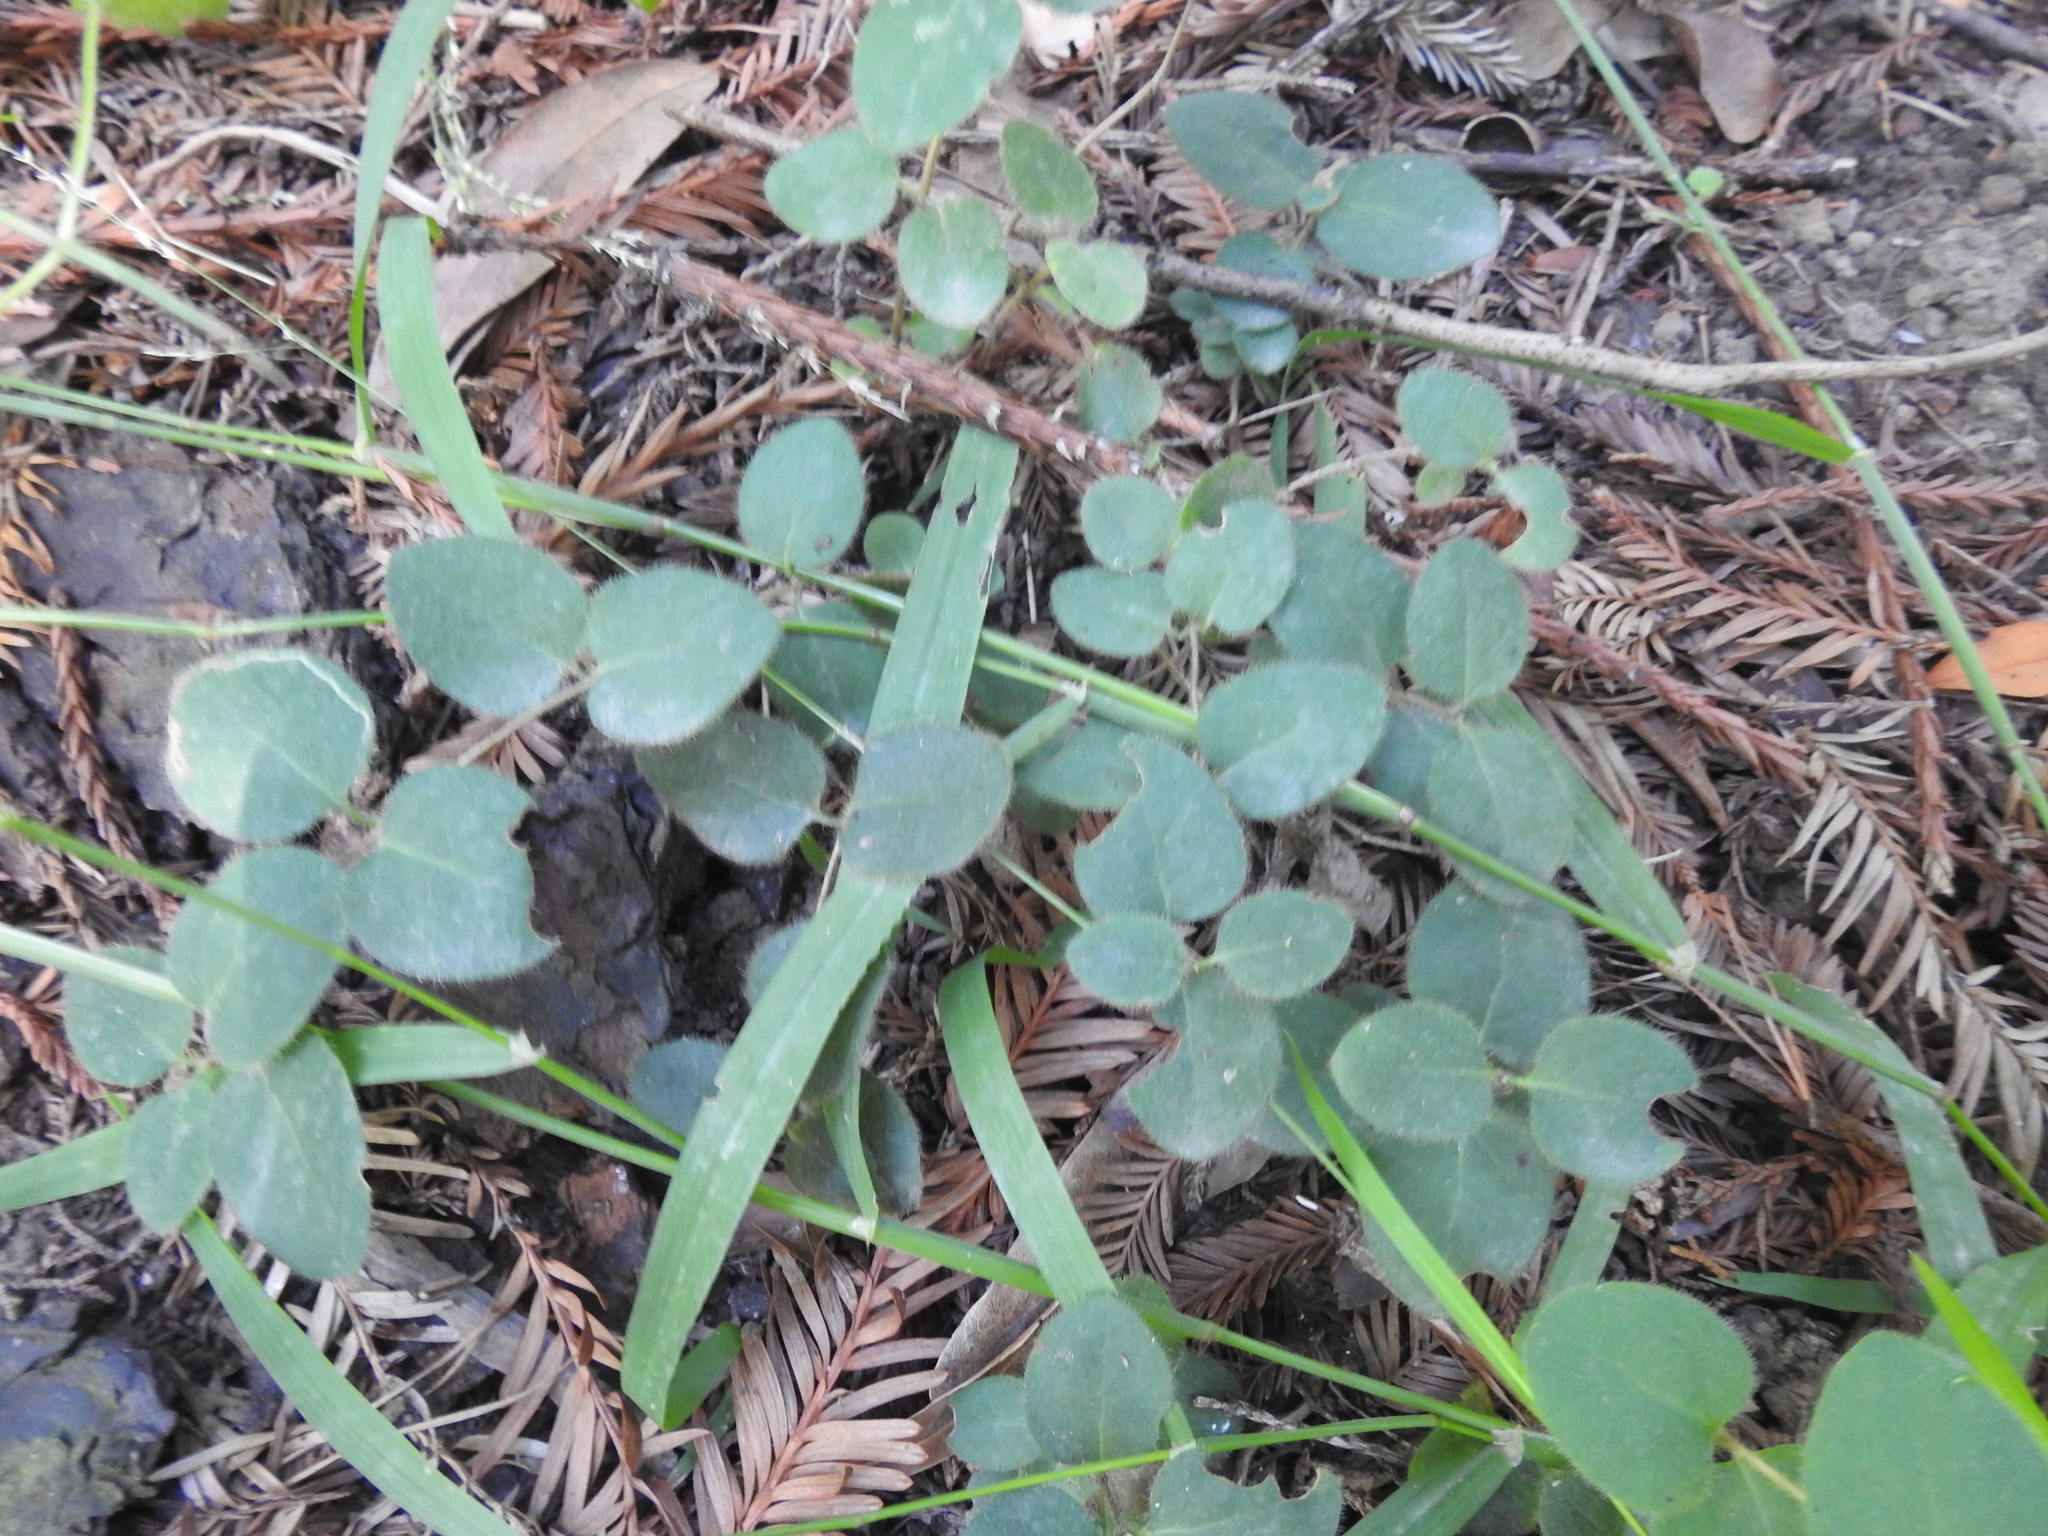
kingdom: Plantae
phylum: Tracheophyta
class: Magnoliopsida
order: Dipsacales
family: Caprifoliaceae
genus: Lonicera
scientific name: Lonicera hispidula
